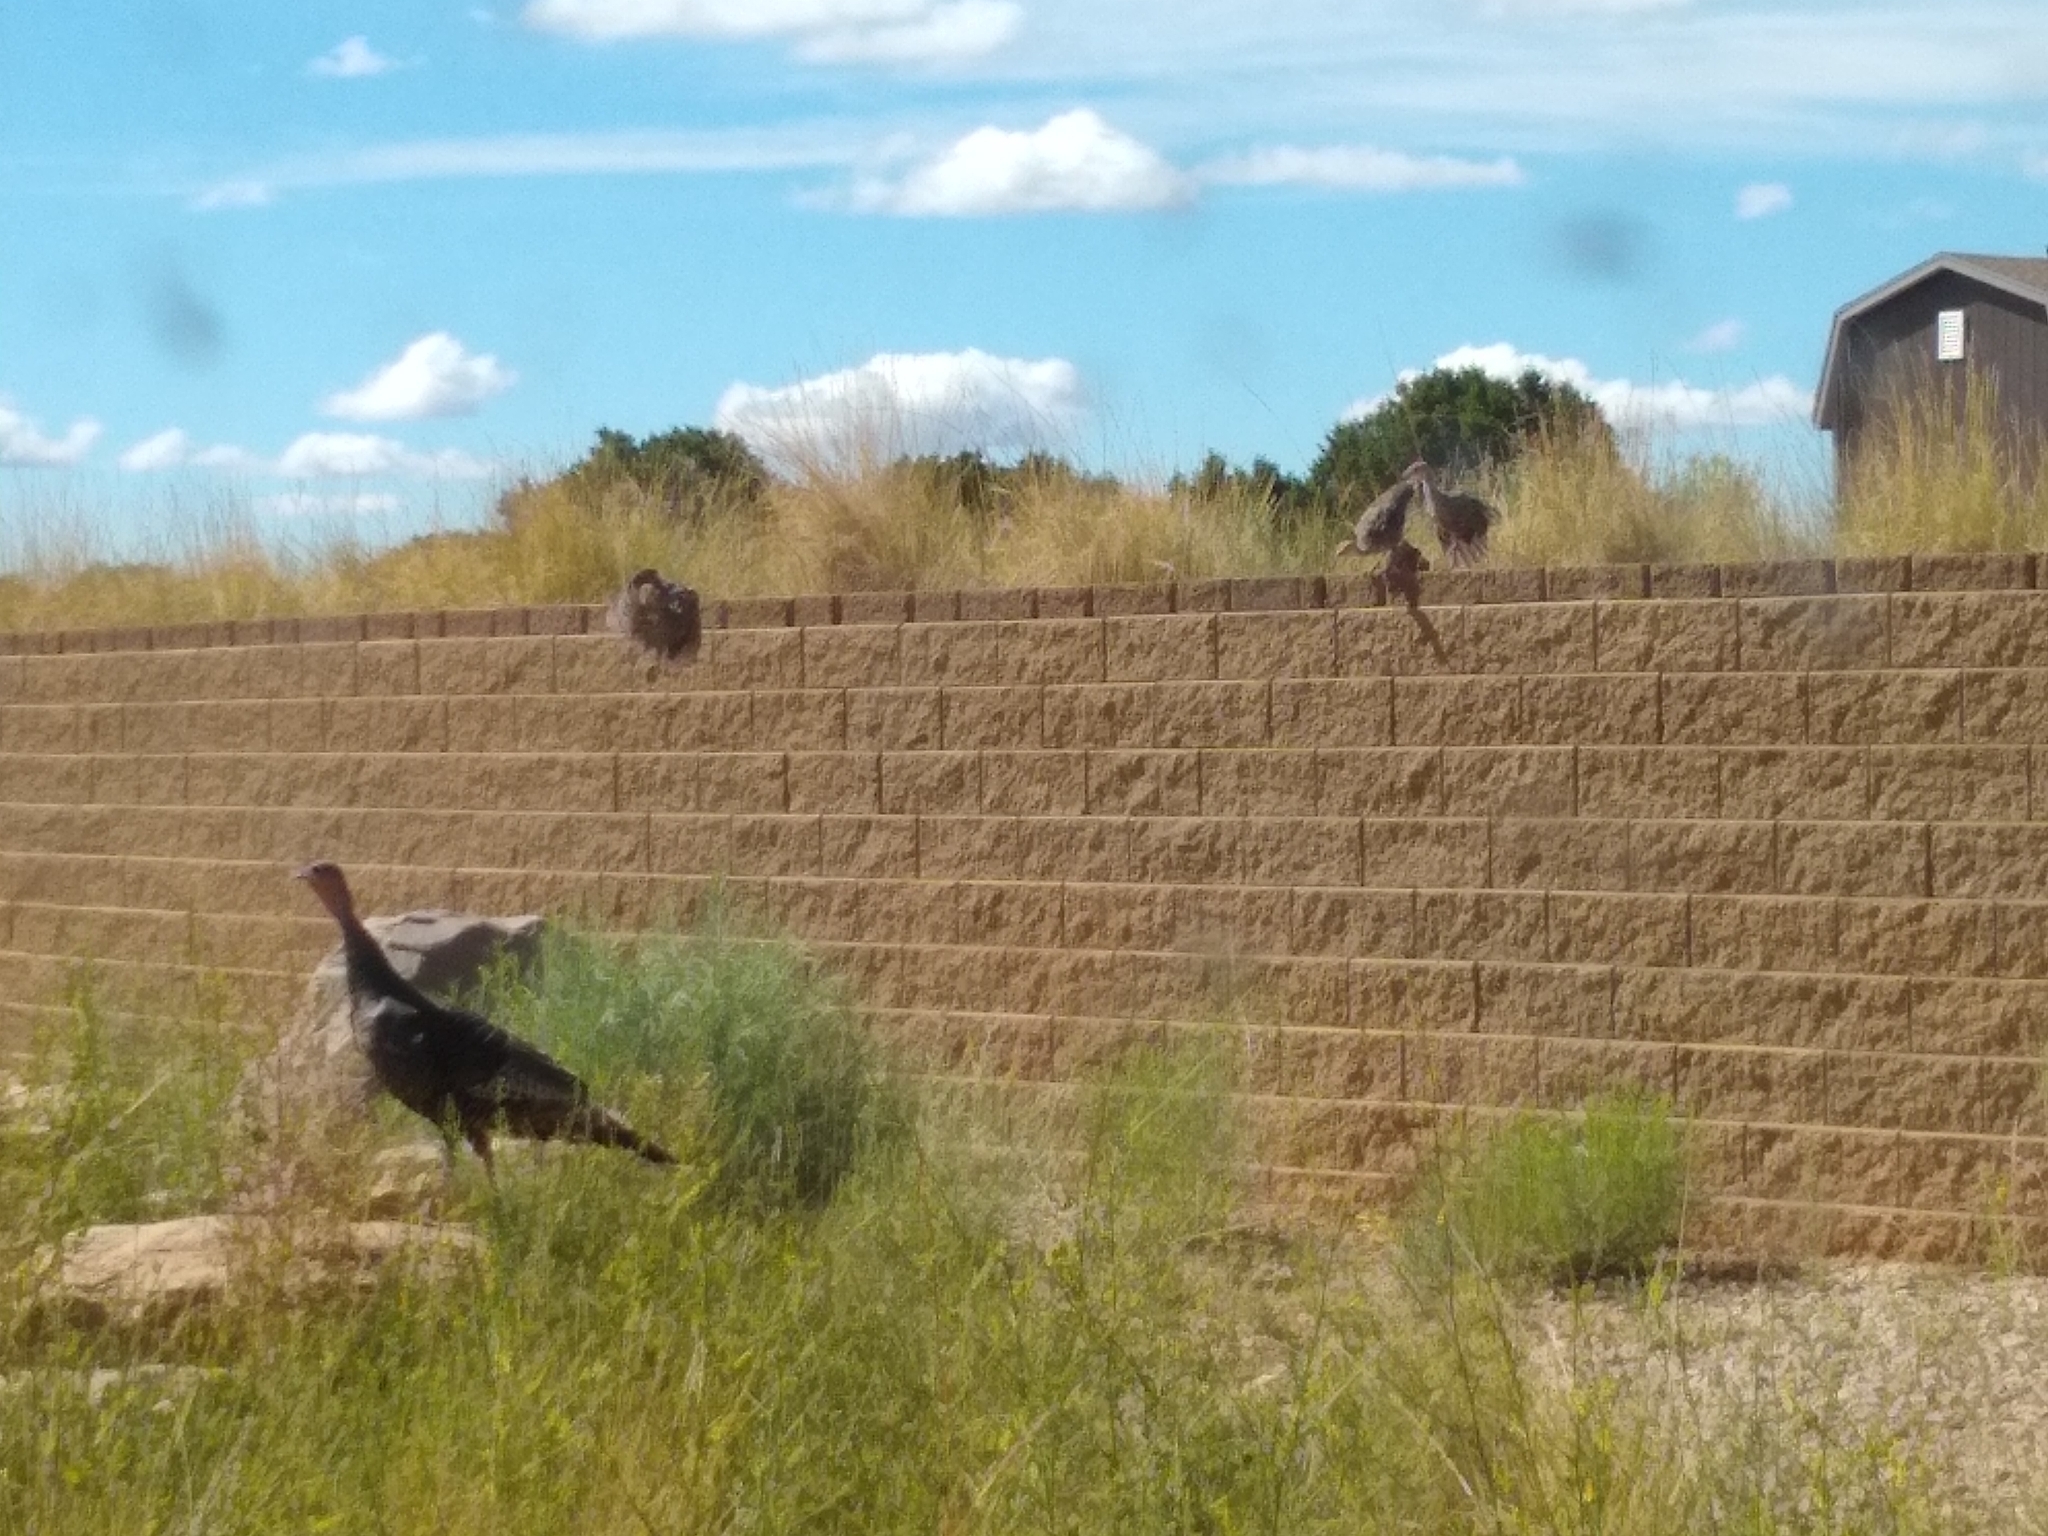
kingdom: Animalia
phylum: Chordata
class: Aves
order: Galliformes
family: Phasianidae
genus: Meleagris
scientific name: Meleagris gallopavo
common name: Wild turkey
